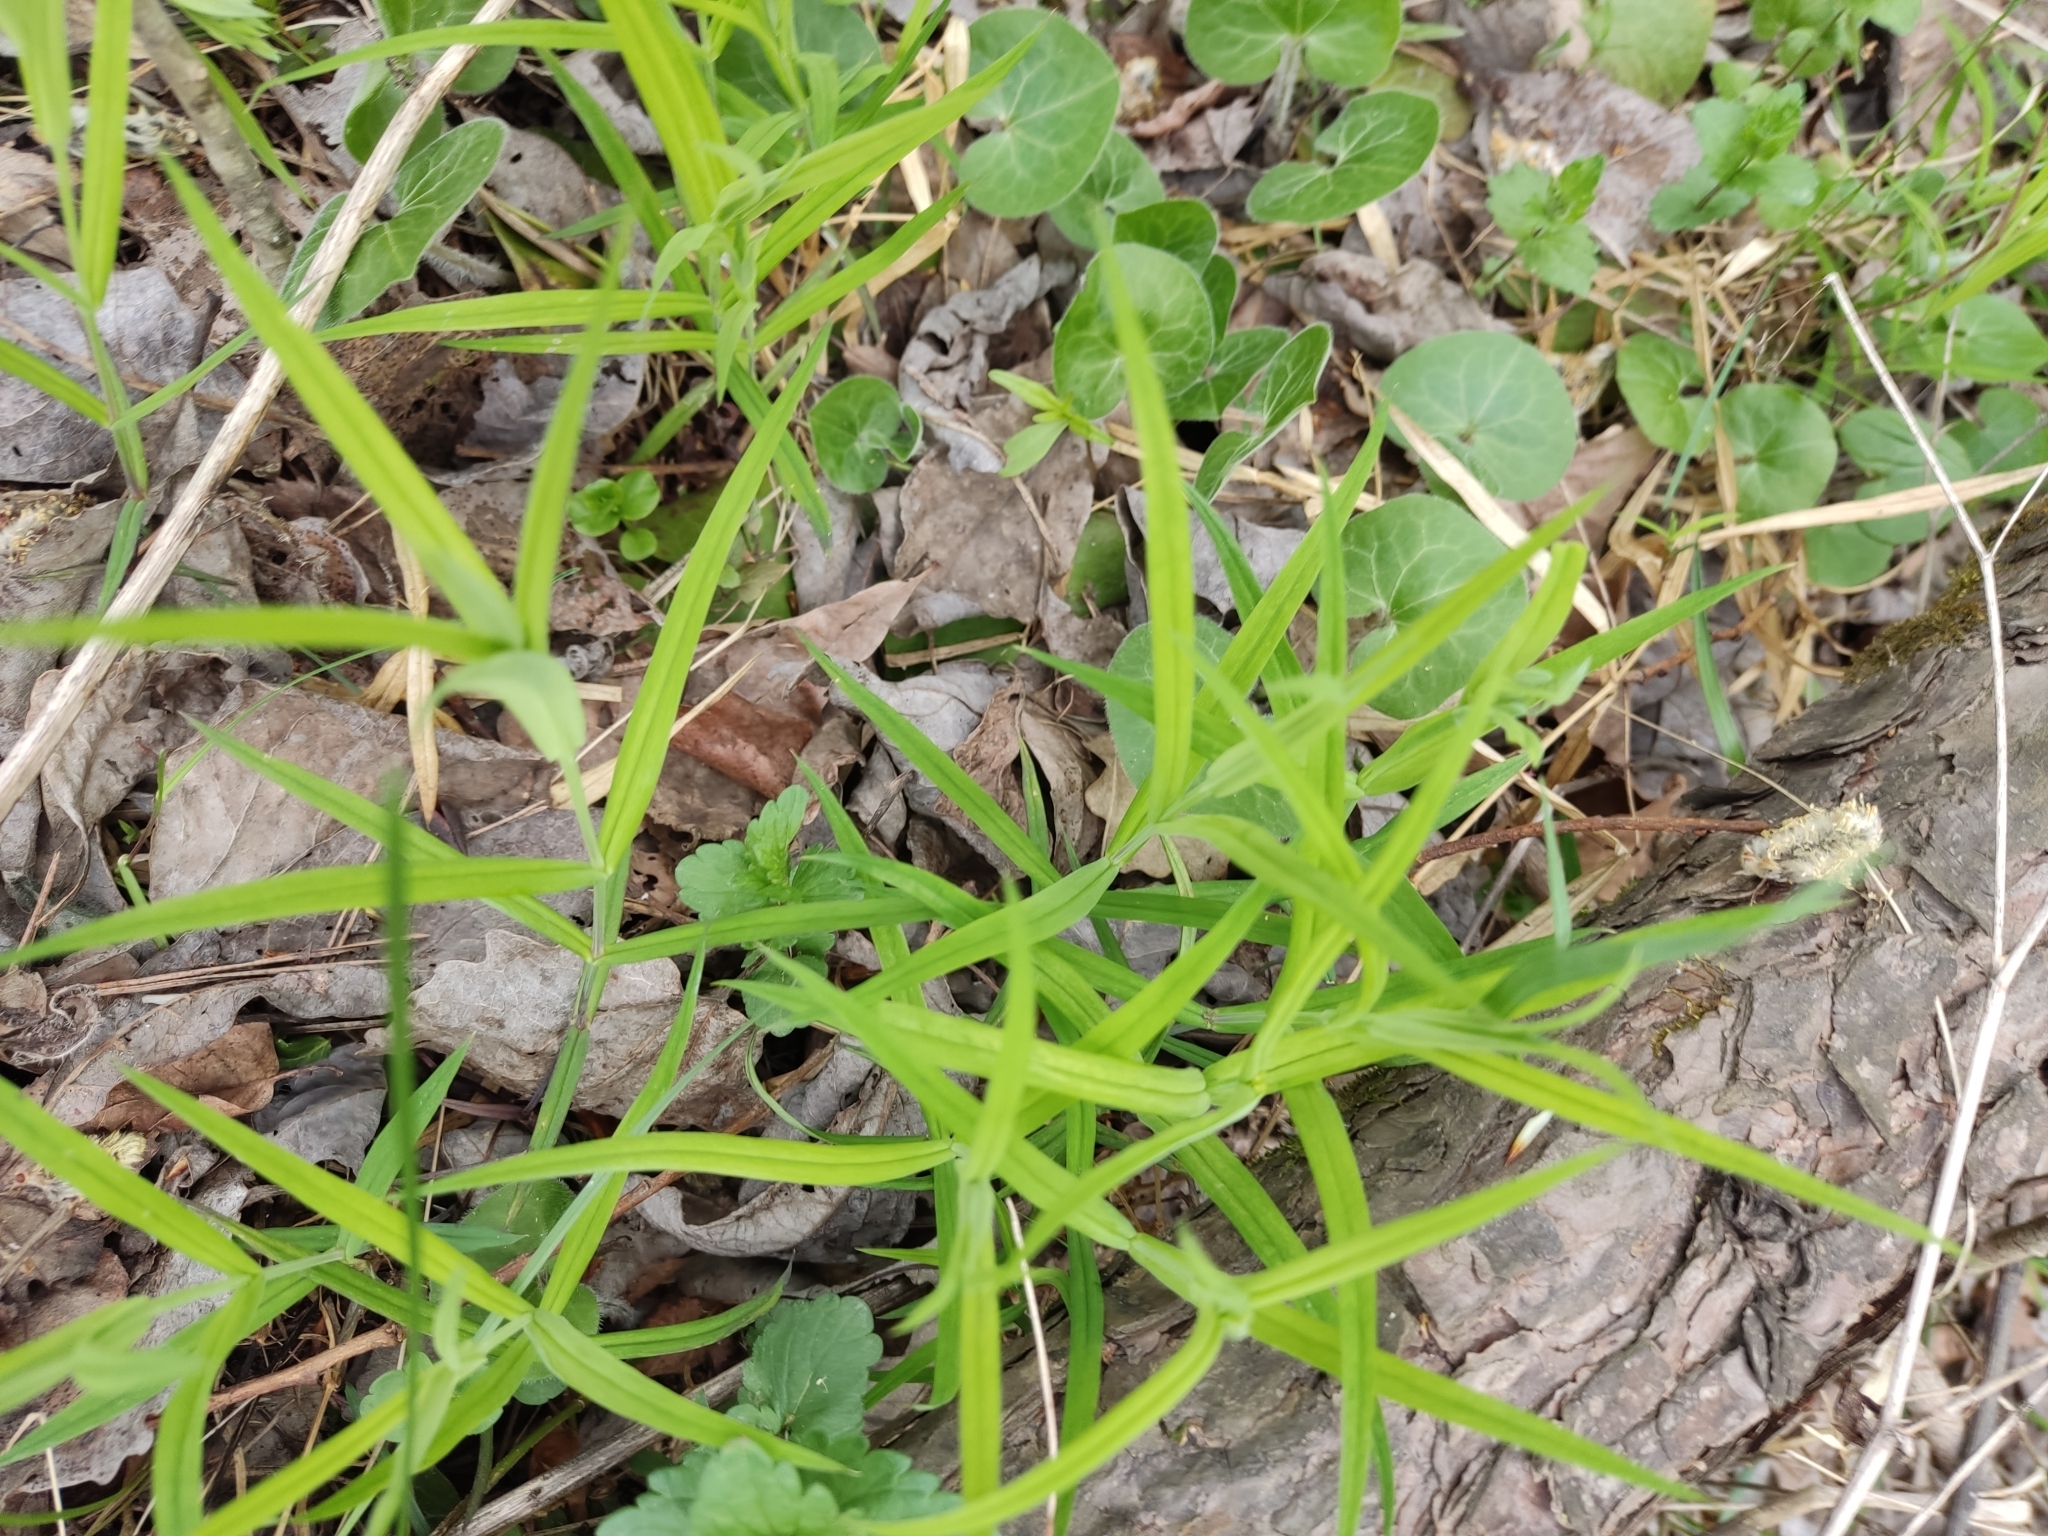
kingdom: Plantae
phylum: Tracheophyta
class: Magnoliopsida
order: Caryophyllales
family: Caryophyllaceae
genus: Rabelera
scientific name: Rabelera holostea
